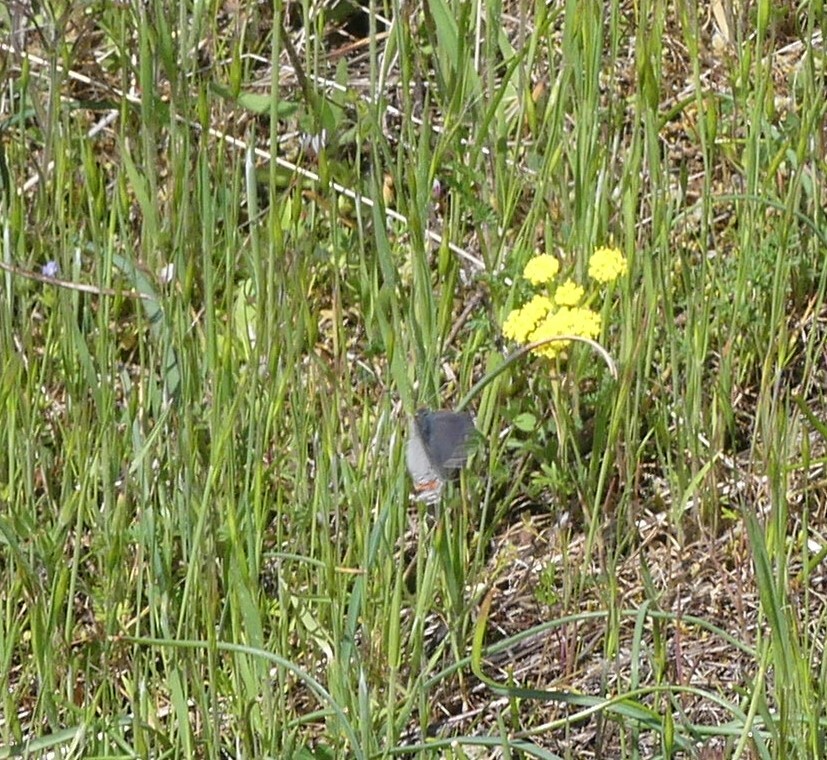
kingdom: Animalia
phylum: Arthropoda
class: Insecta
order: Lepidoptera
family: Lycaenidae
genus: Strymon
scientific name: Strymon melinus
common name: Gray hairstreak
